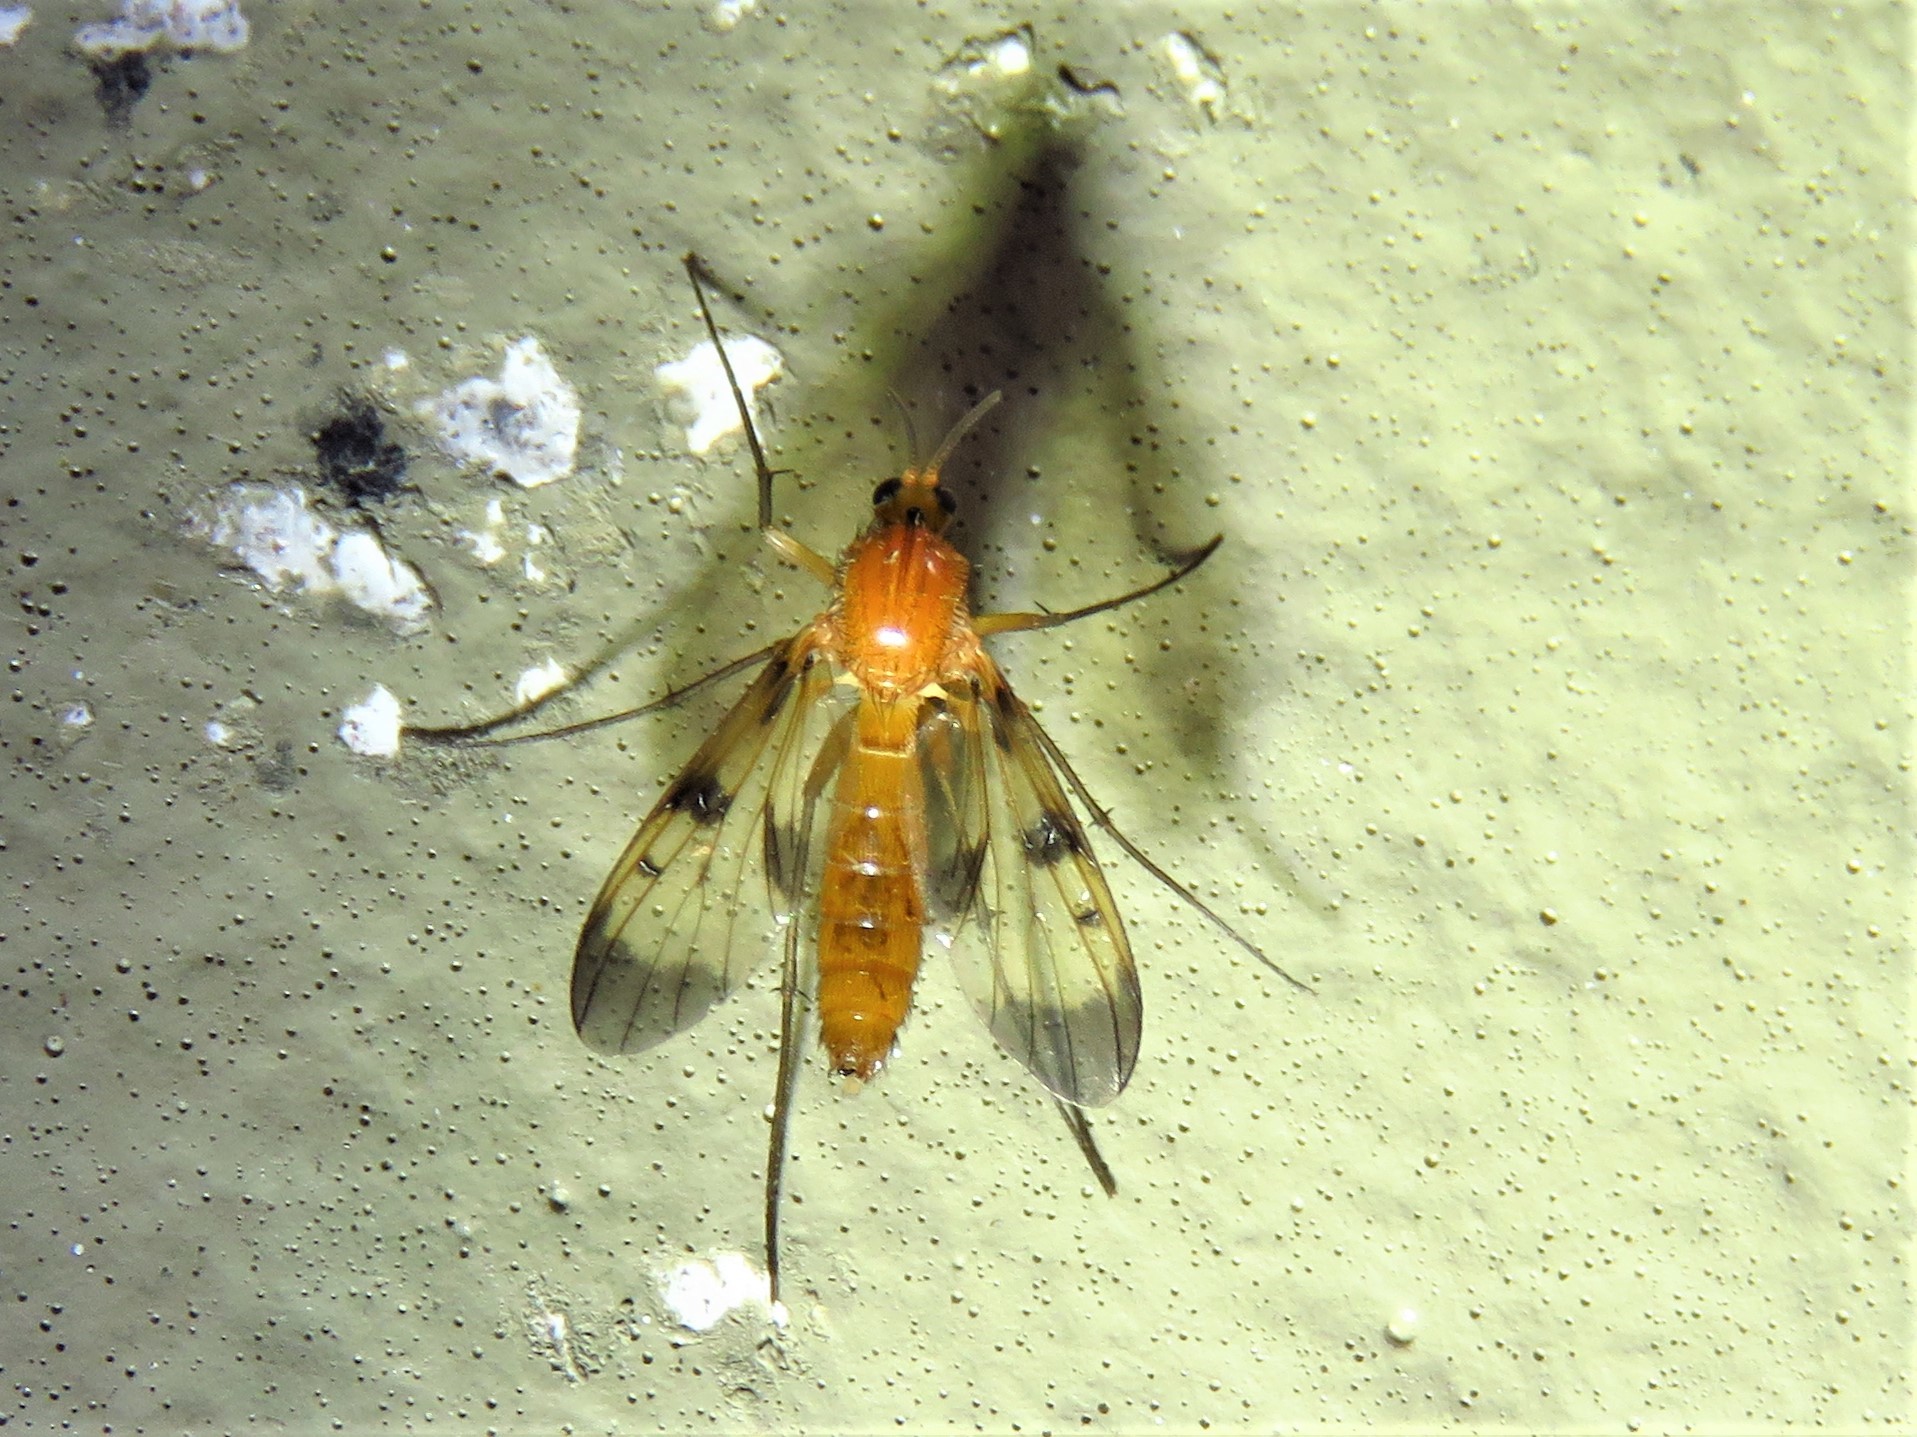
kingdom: Animalia
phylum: Arthropoda
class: Insecta
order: Diptera
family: Mycetophilidae
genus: Neoempheria
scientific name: Neoempheria illustris
